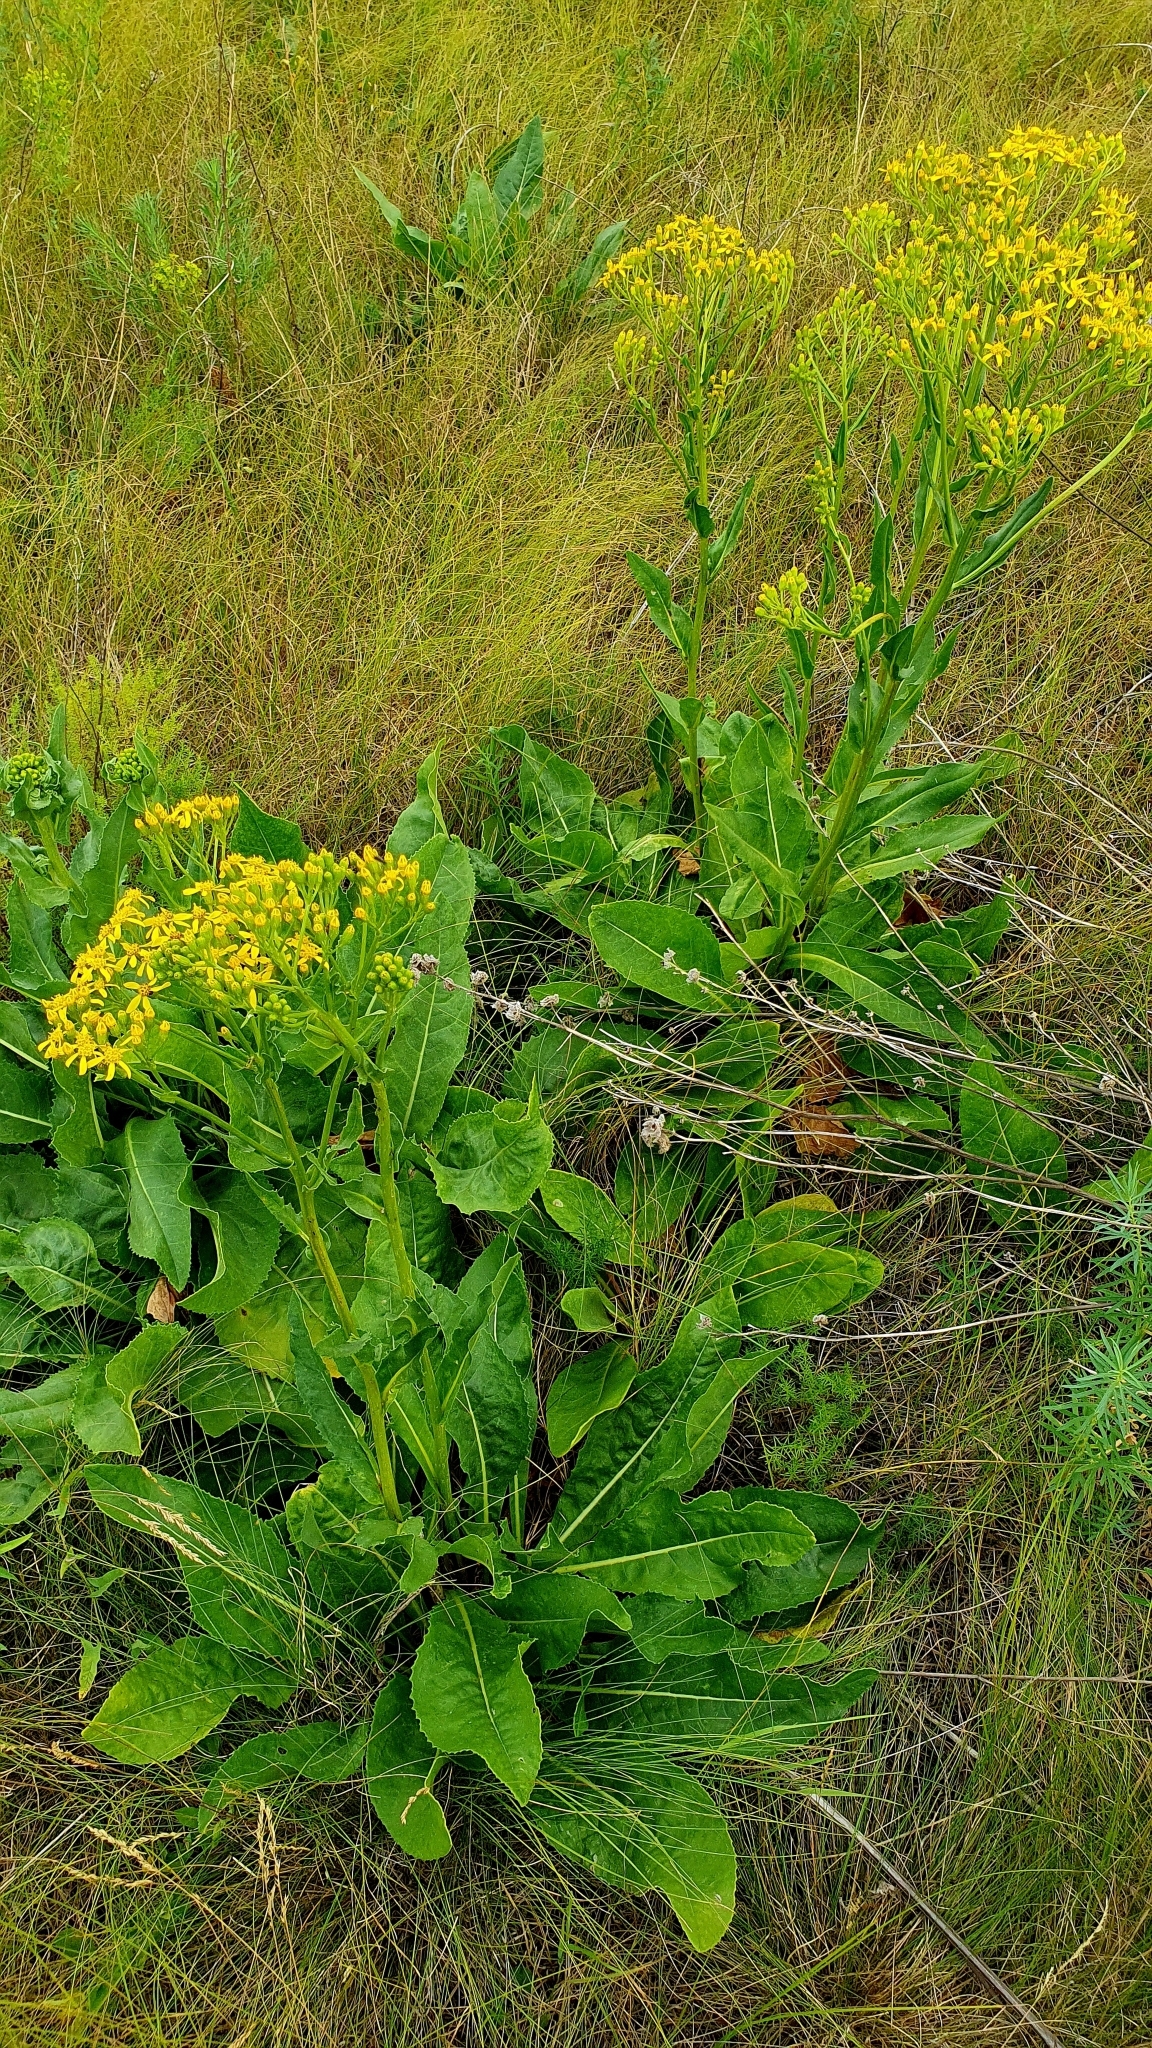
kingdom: Plantae
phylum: Tracheophyta
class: Magnoliopsida
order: Asterales
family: Asteraceae
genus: Senecio
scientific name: Senecio doria
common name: Golden ragwort
